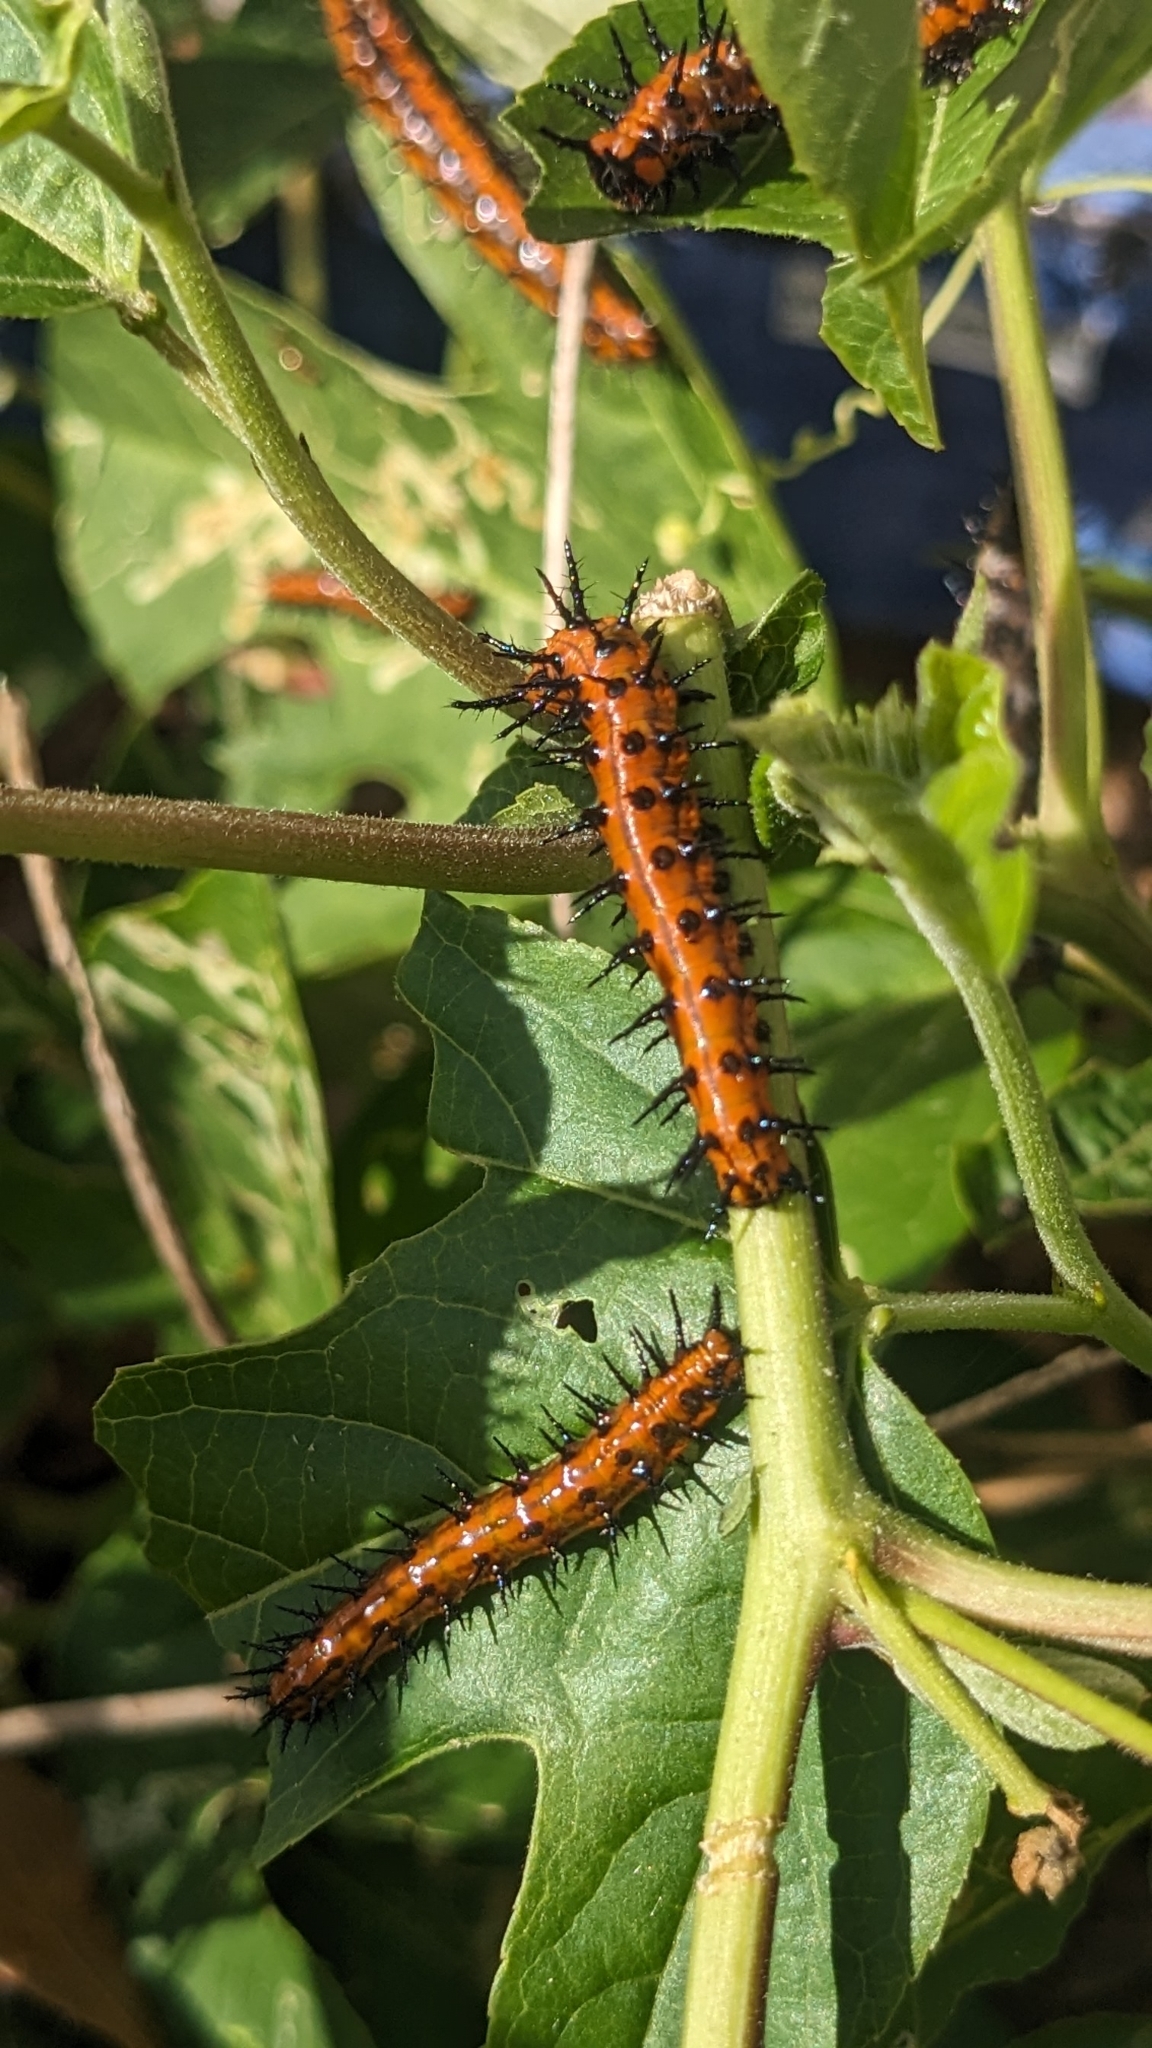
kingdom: Animalia
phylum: Arthropoda
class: Insecta
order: Lepidoptera
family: Nymphalidae
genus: Dione
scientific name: Dione vanillae
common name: Gulf fritillary
